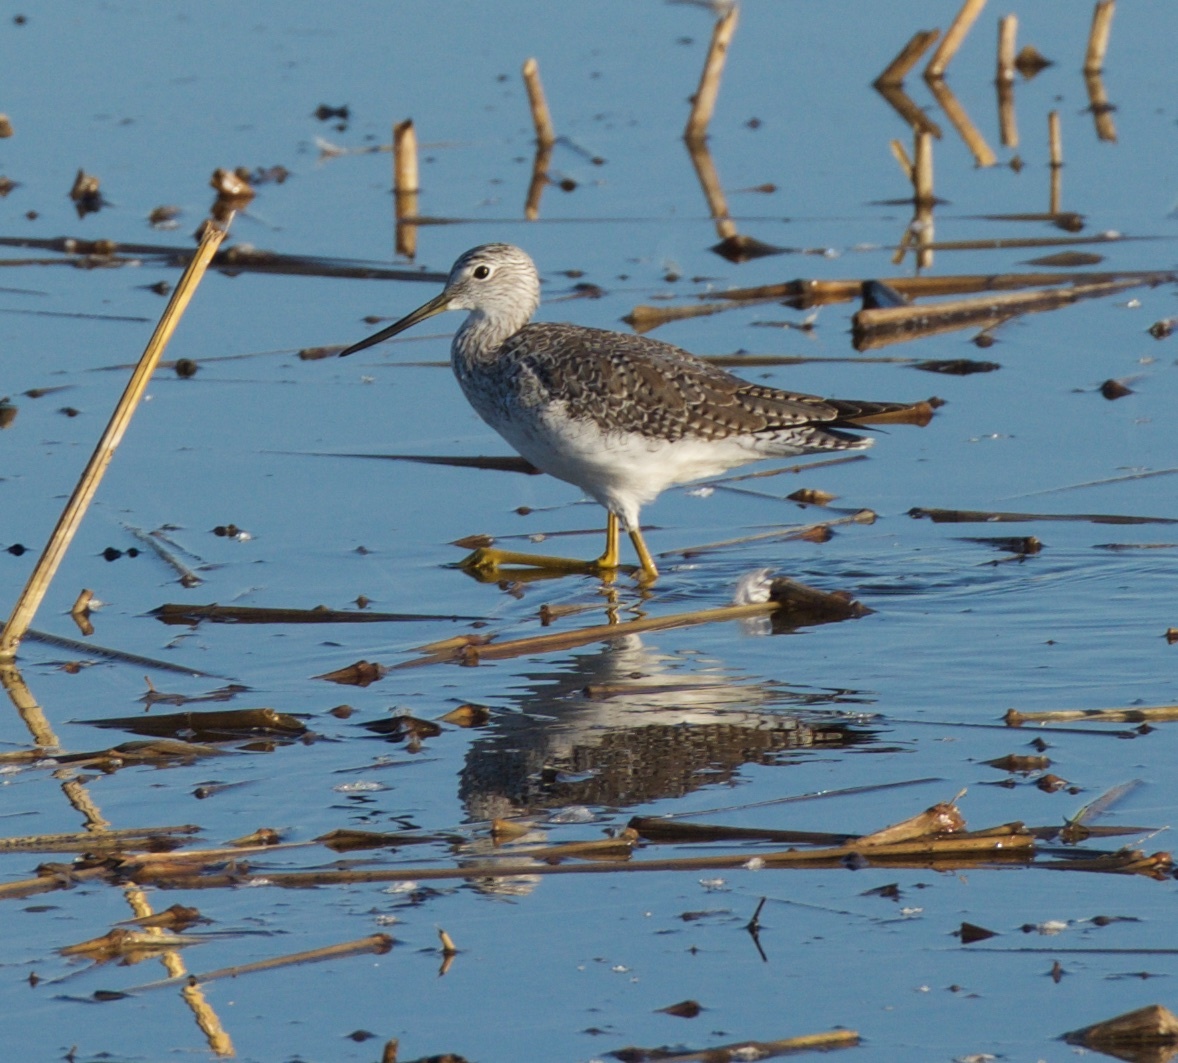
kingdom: Animalia
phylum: Chordata
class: Aves
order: Charadriiformes
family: Scolopacidae
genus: Tringa
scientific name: Tringa melanoleuca
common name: Greater yellowlegs
